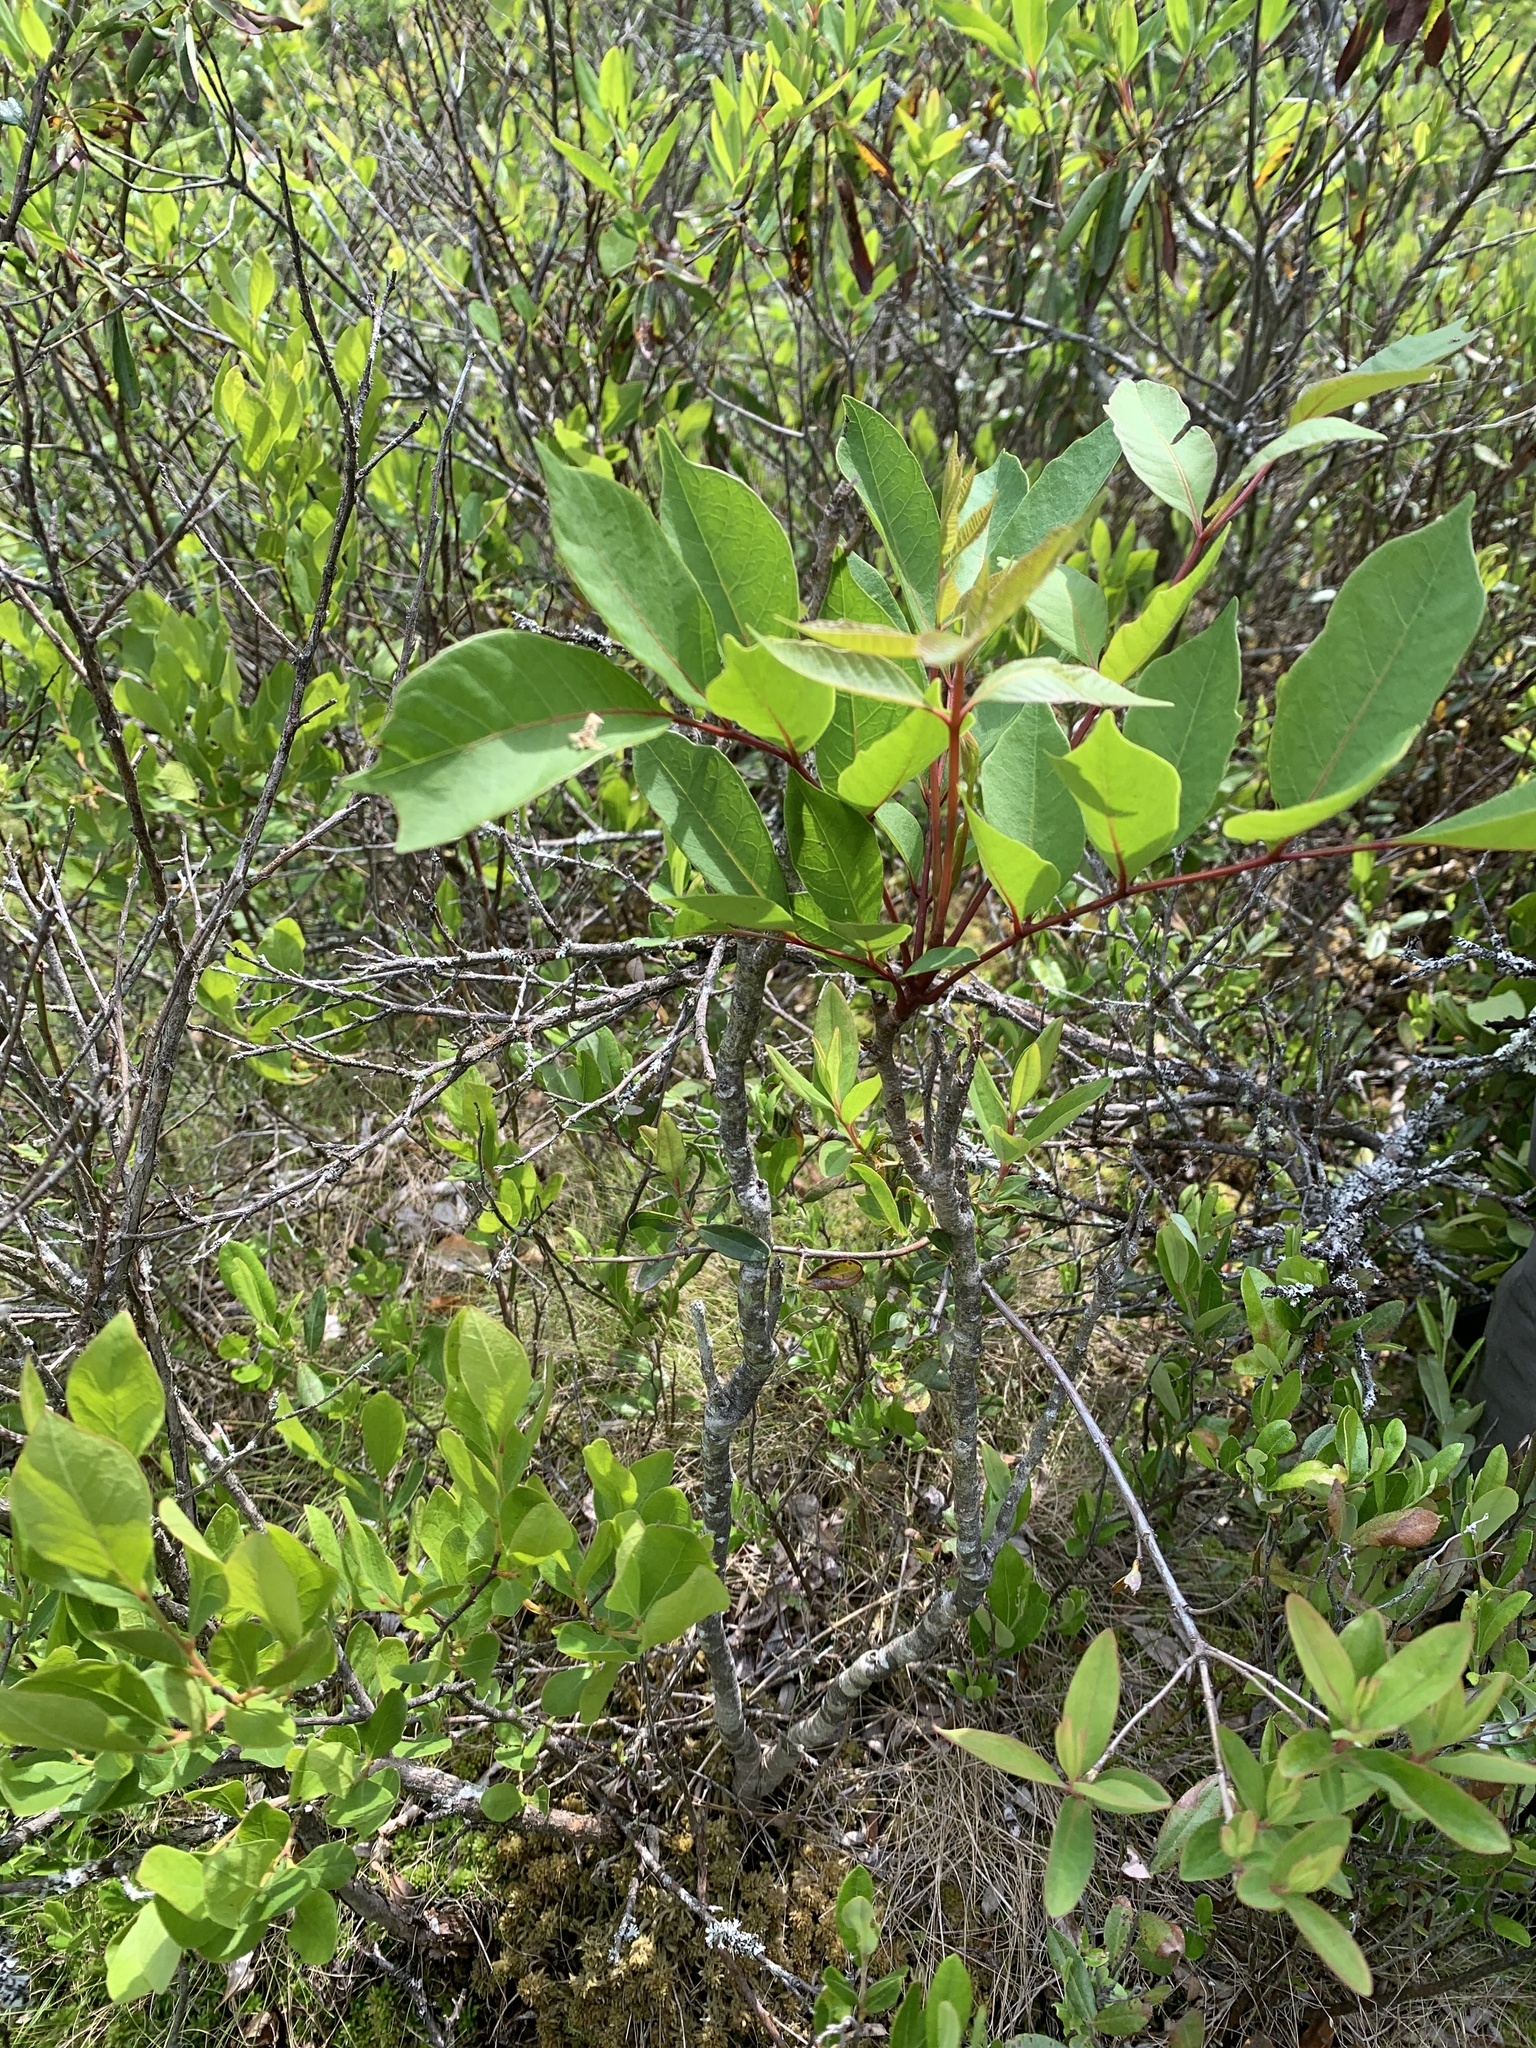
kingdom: Plantae
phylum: Tracheophyta
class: Magnoliopsida
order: Sapindales
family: Anacardiaceae
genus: Toxicodendron
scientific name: Toxicodendron vernix
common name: Poison sumac
